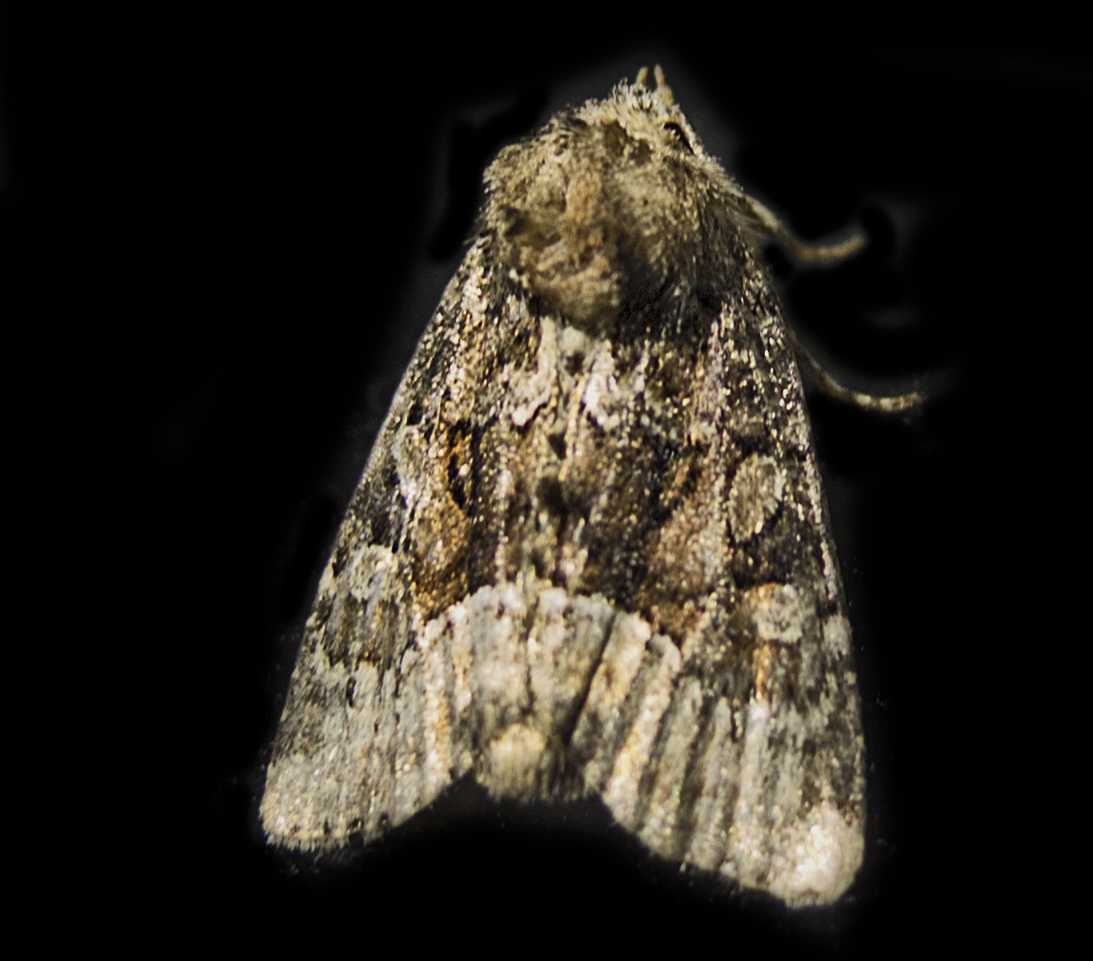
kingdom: Animalia
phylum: Arthropoda
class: Insecta
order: Lepidoptera
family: Noctuidae
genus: Oligia
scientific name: Oligia
